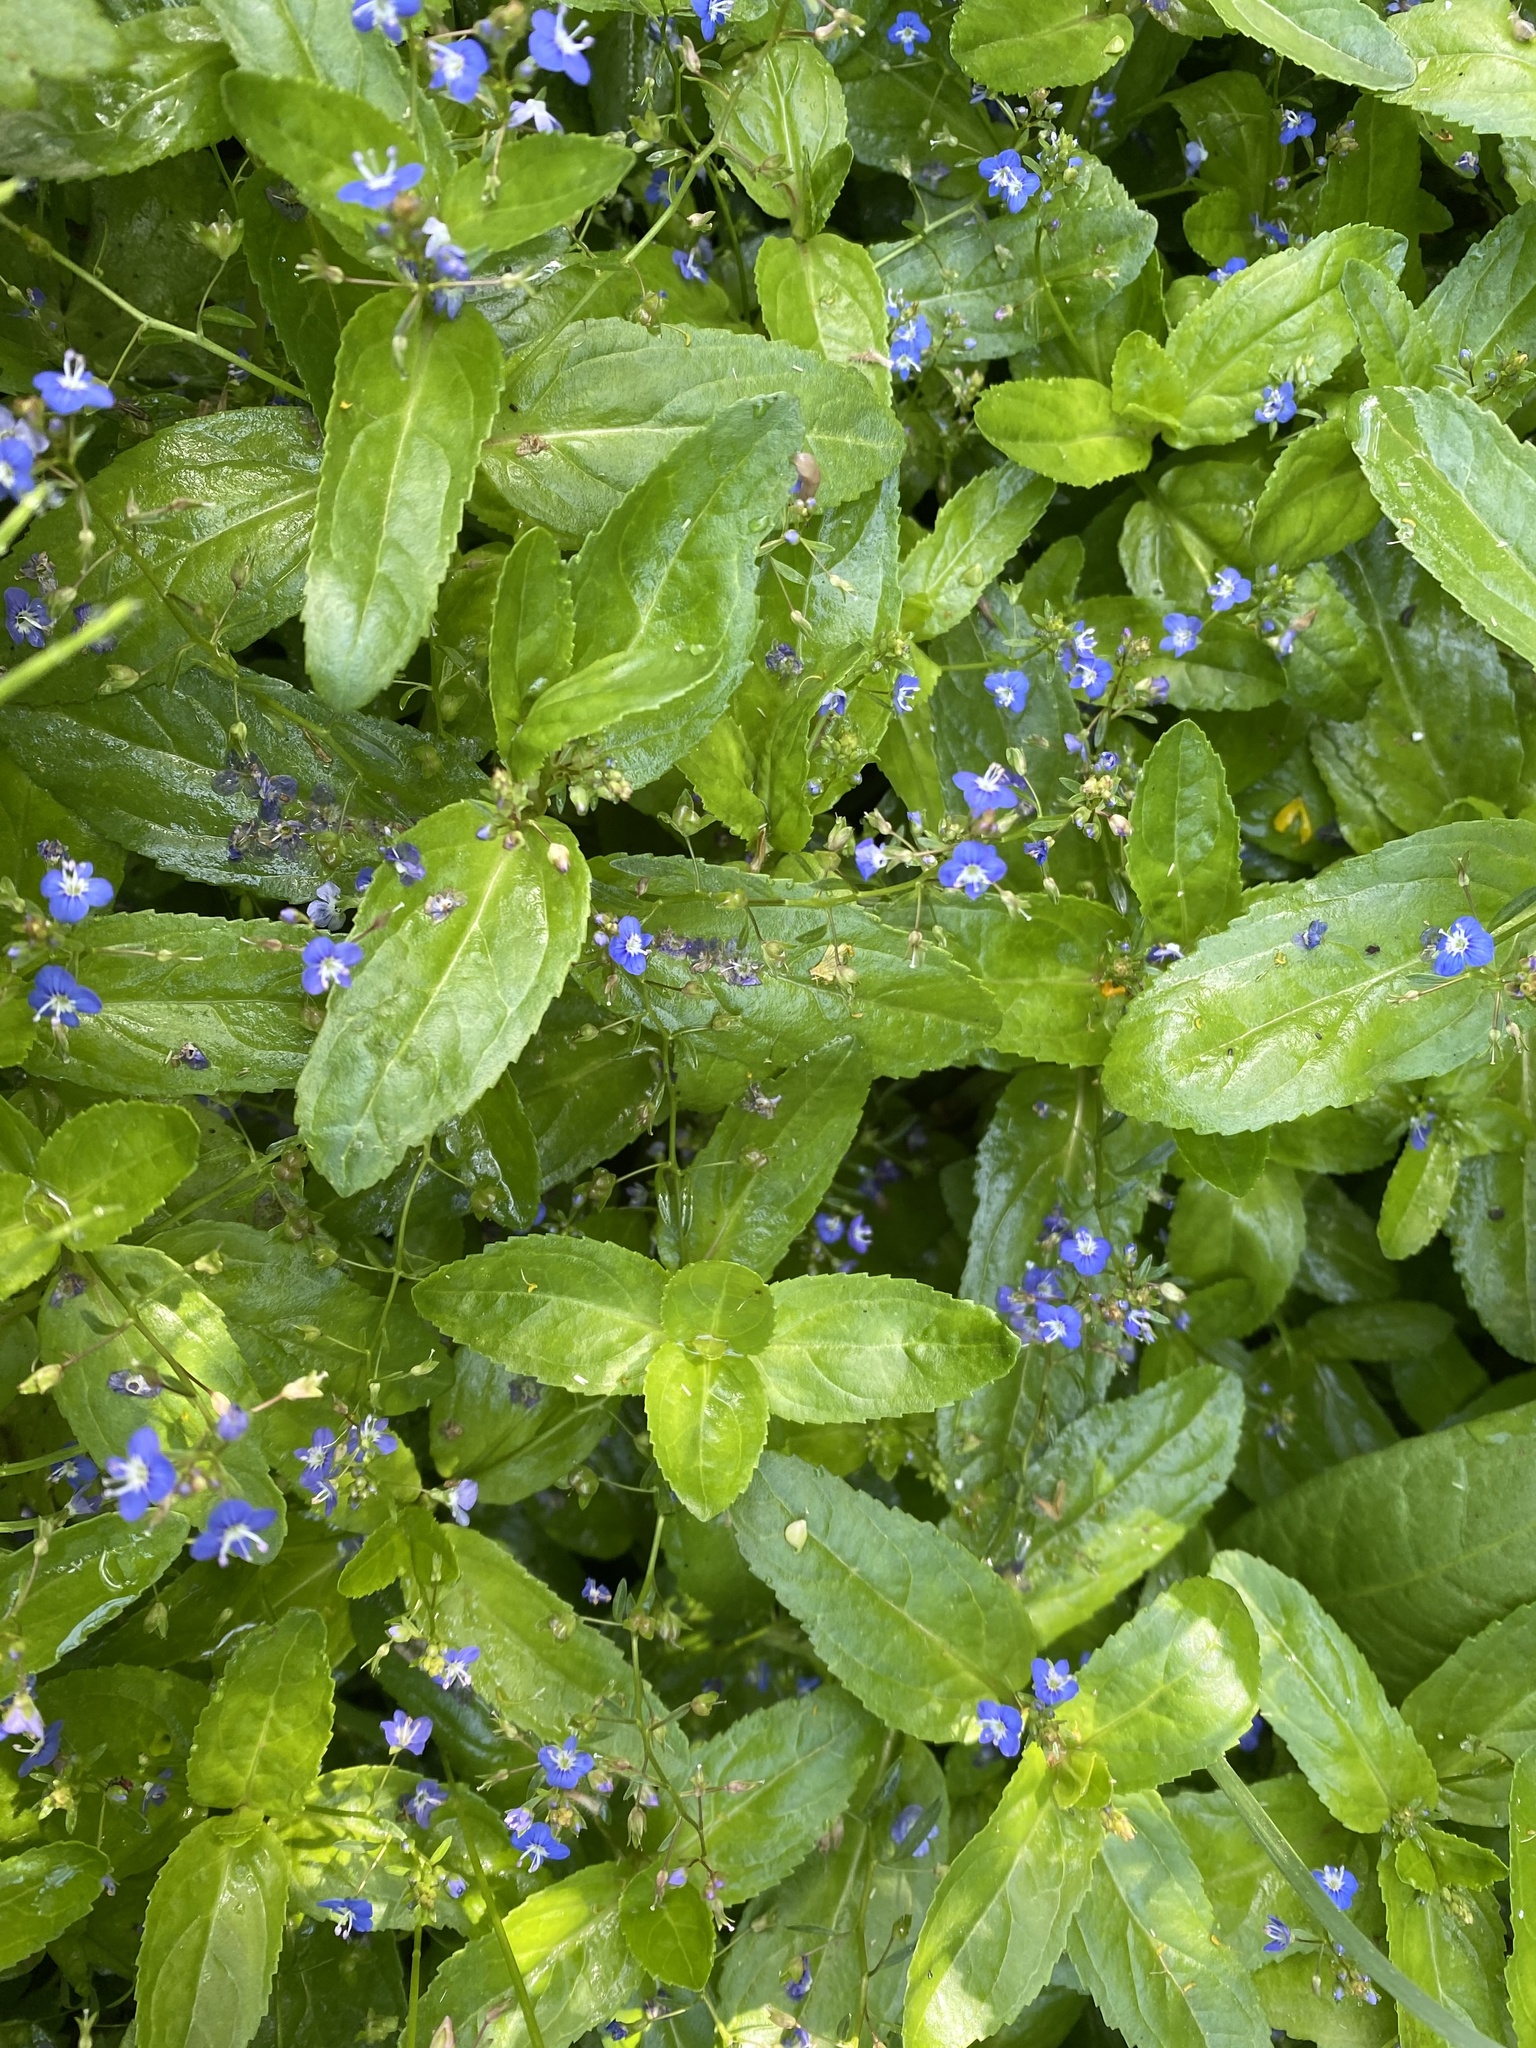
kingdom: Plantae
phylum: Tracheophyta
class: Magnoliopsida
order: Lamiales
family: Plantaginaceae
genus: Veronica
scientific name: Veronica beccabunga
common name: Brooklime
